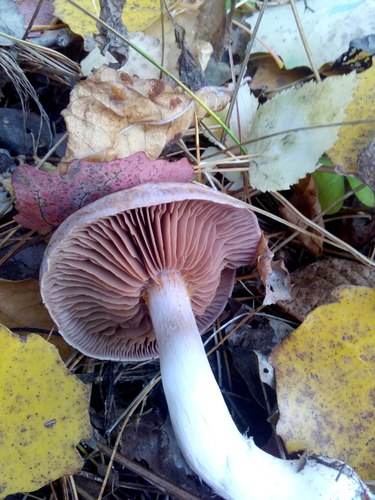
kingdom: Fungi
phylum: Basidiomycota
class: Agaricomycetes
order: Agaricales
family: Agaricaceae
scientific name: Agaricaceae
